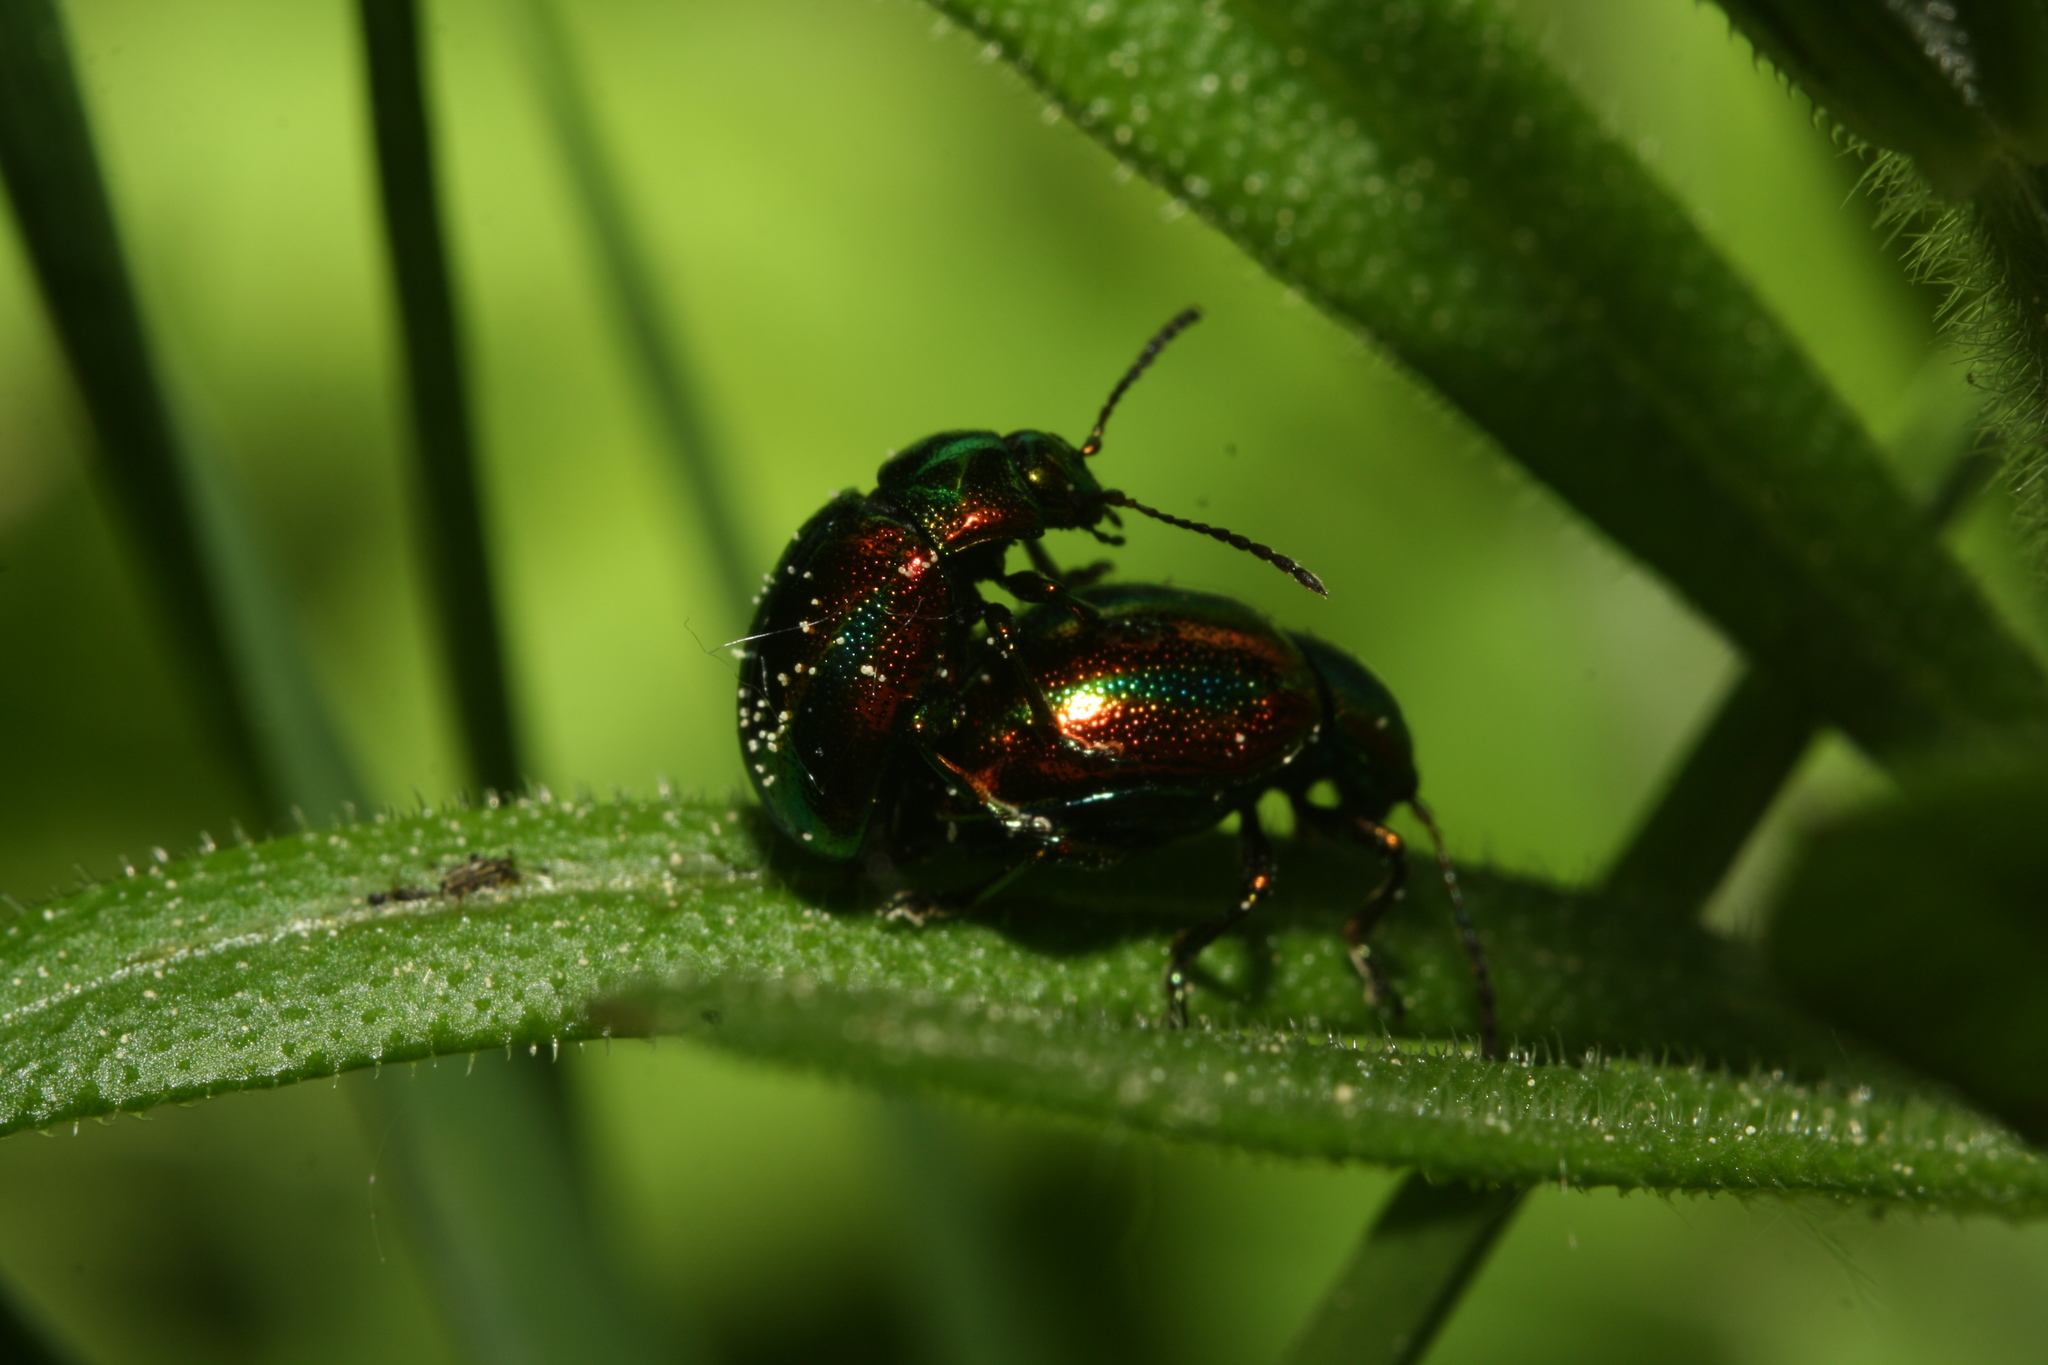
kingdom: Animalia
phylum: Arthropoda
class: Insecta
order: Coleoptera
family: Chrysomelidae
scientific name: Chrysomelidae
